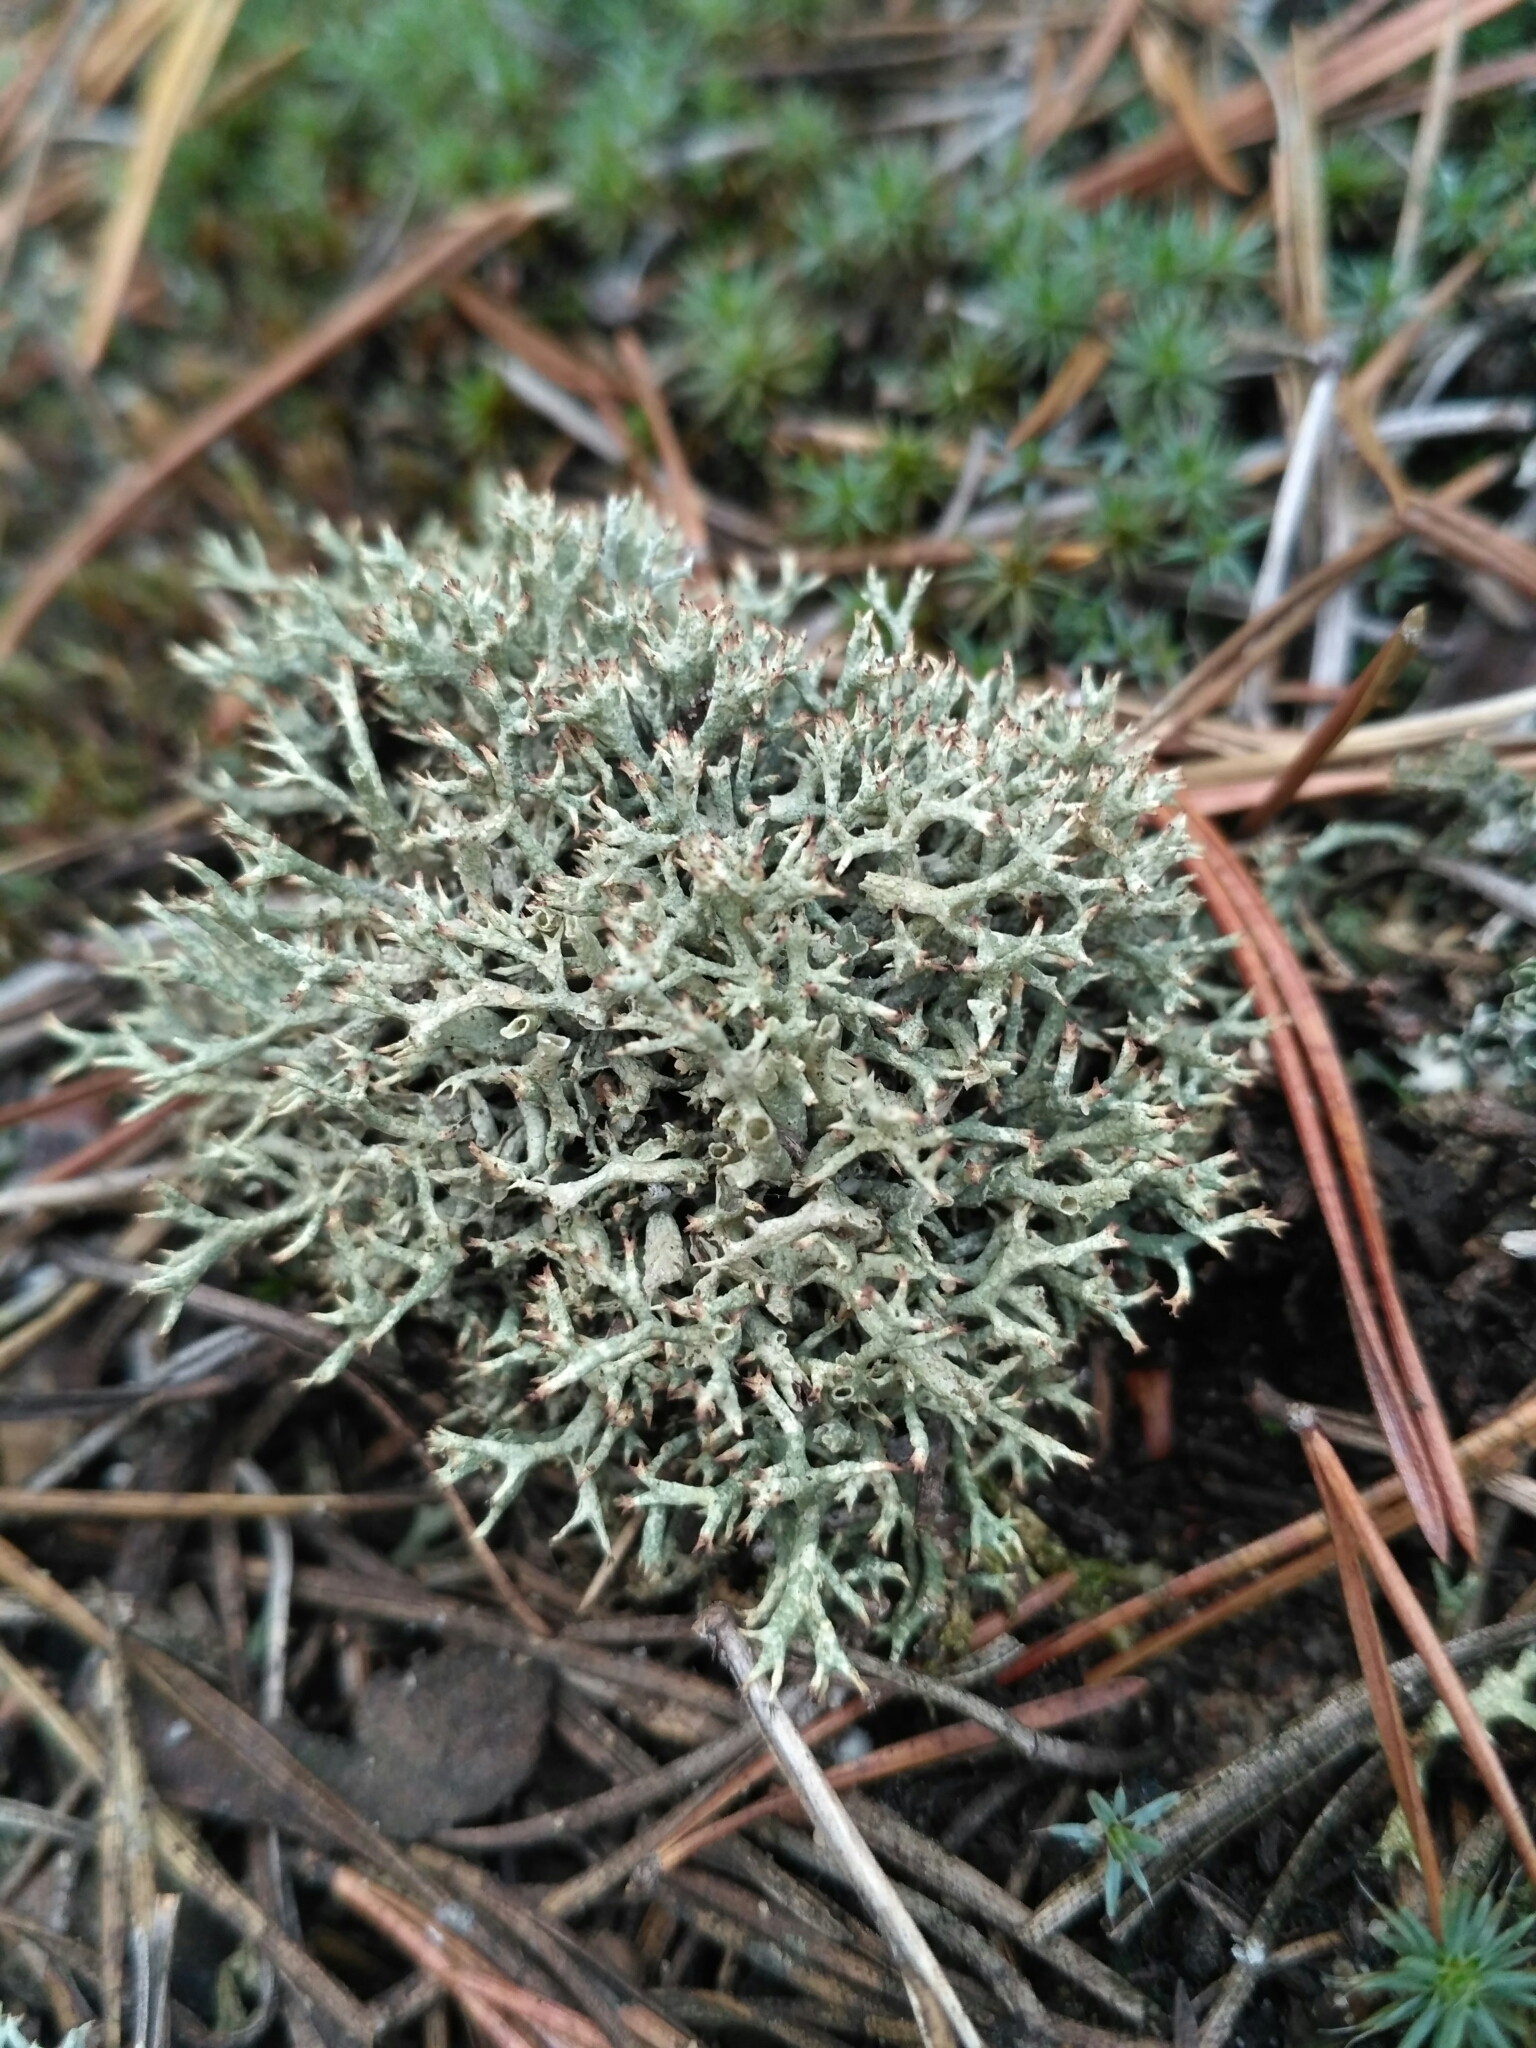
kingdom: Fungi
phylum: Ascomycota
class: Lecanoromycetes
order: Lecanorales
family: Cladoniaceae
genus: Cladonia
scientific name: Cladonia uncialis
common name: Thorn lichen
